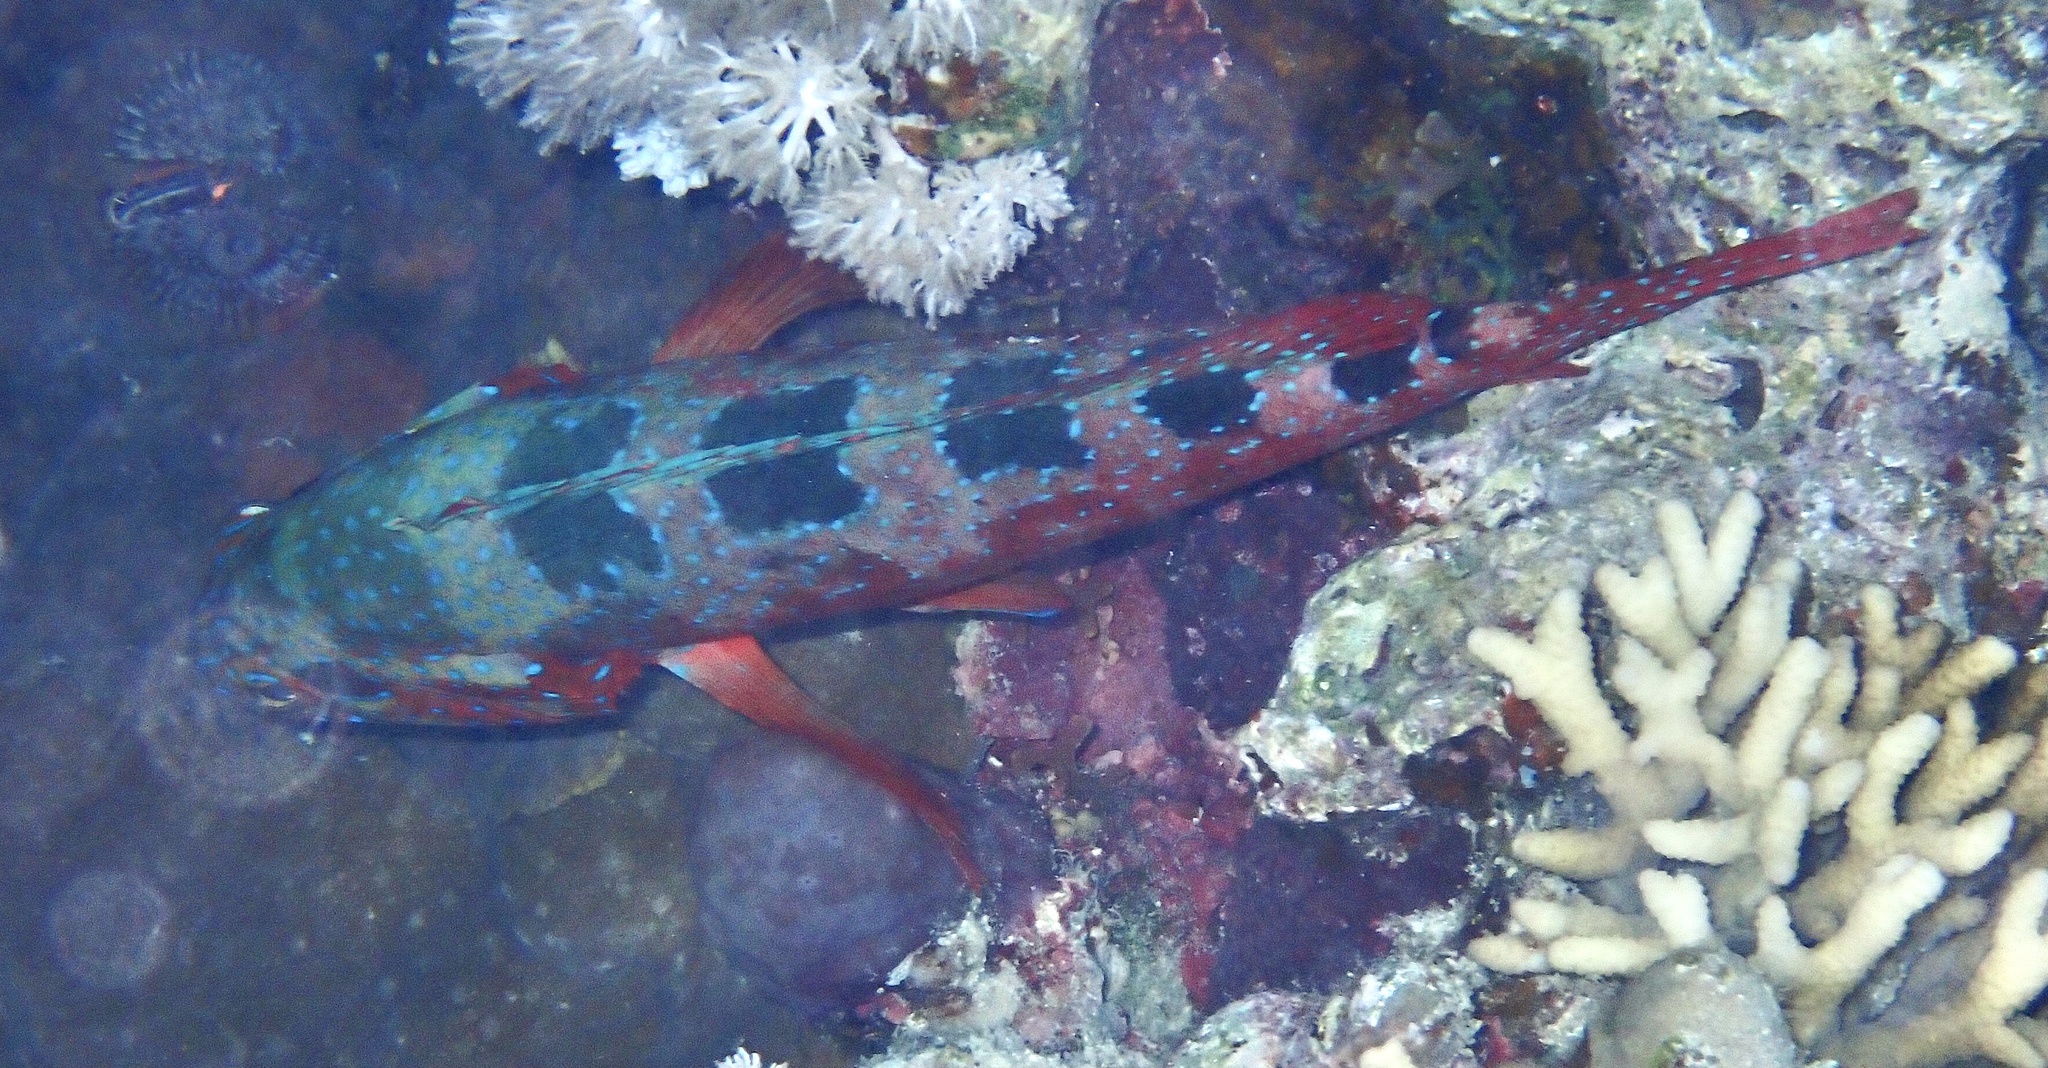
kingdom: Animalia
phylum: Chordata
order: Perciformes
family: Serranidae
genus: Cephalopholis
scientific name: Cephalopholis sexmaculata
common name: Sixblotch hind
